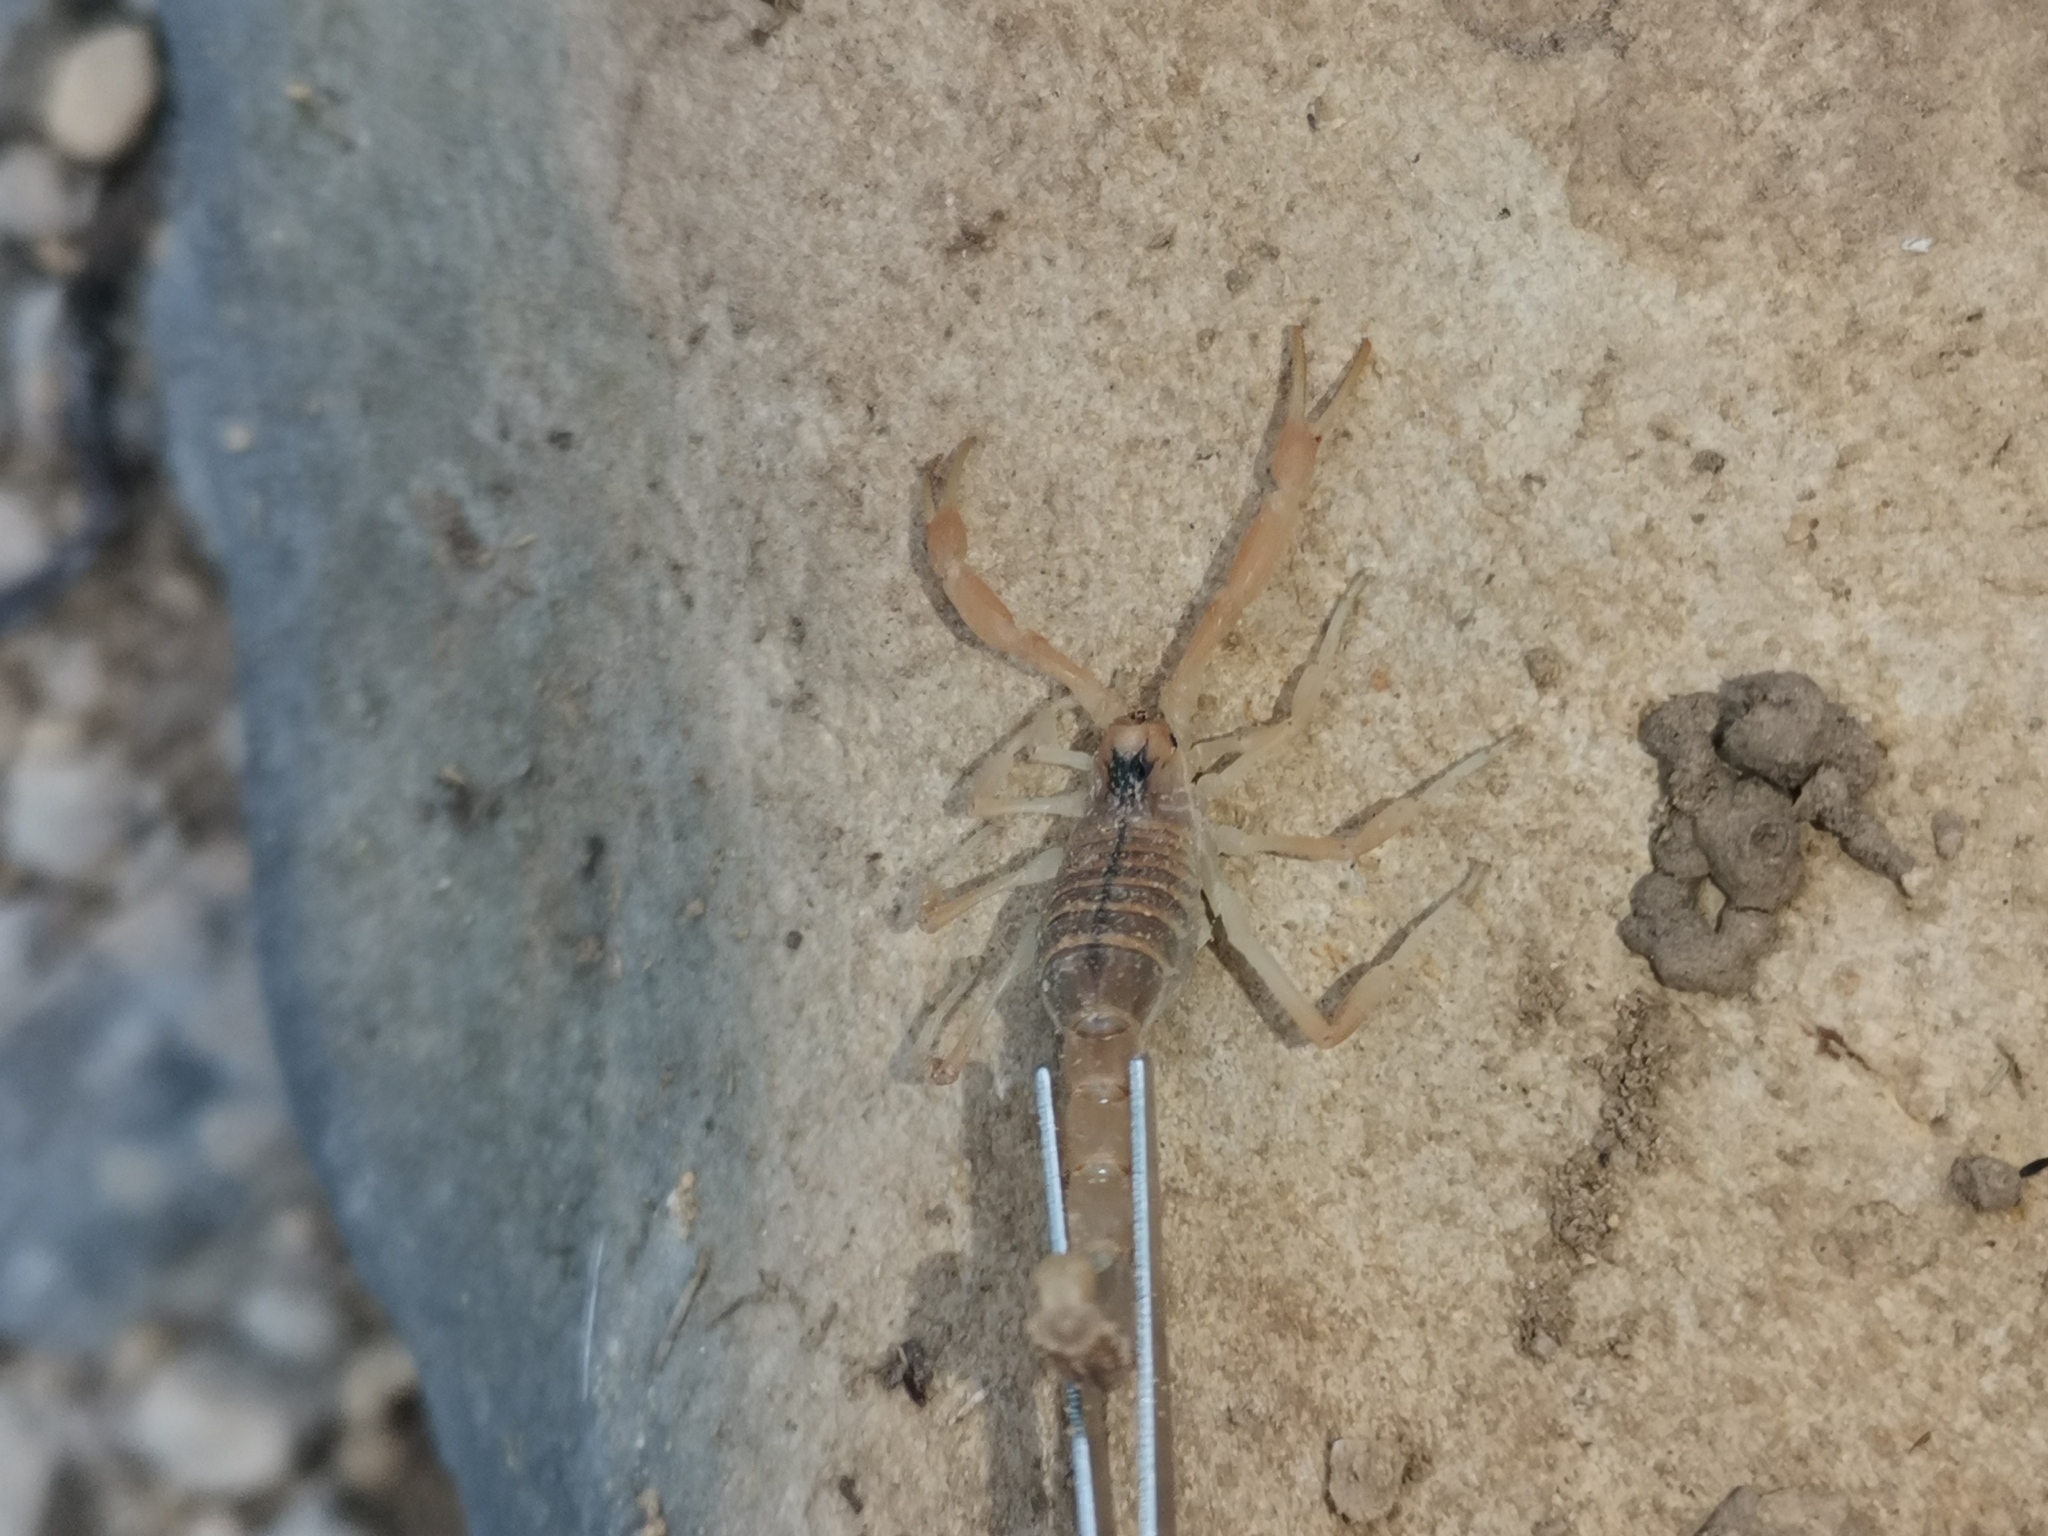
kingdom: Animalia
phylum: Arthropoda
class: Arachnida
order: Scorpiones
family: Buthidae
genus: Buthus
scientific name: Buthus occitanus
